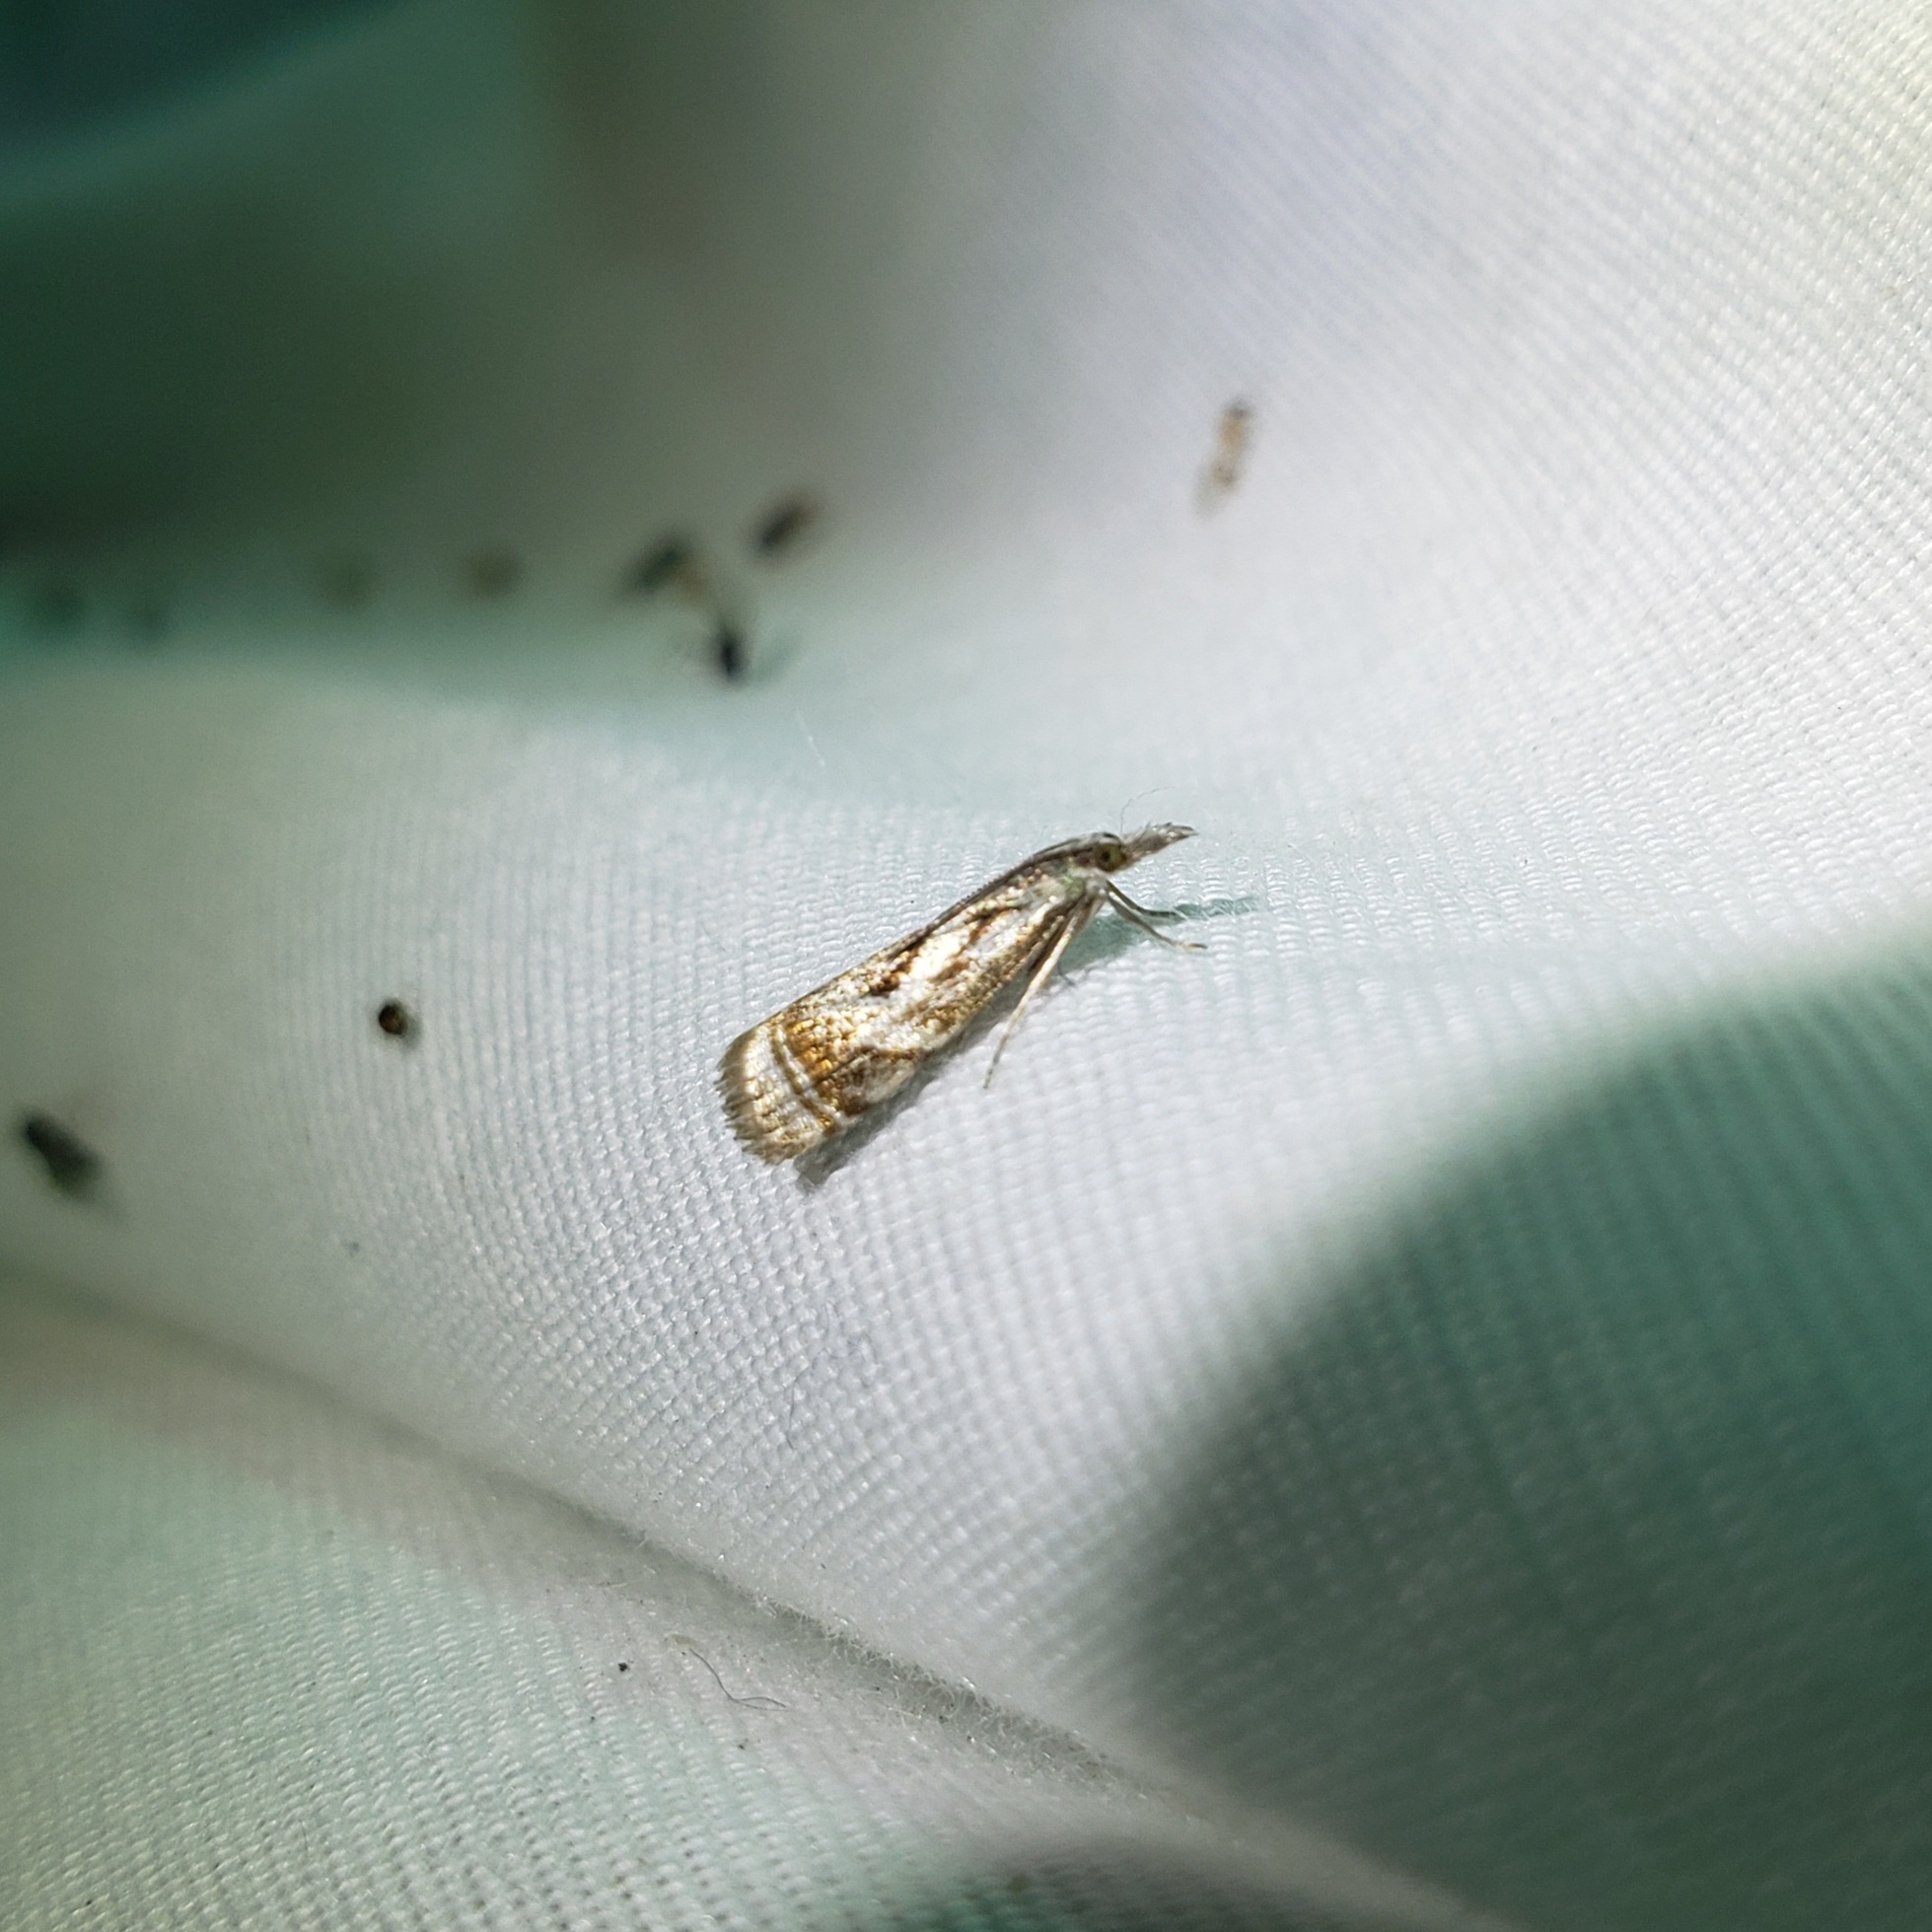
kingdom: Animalia
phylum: Arthropoda
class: Insecta
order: Lepidoptera
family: Crambidae
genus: Microcrambus
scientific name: Microcrambus elegans
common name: Elegant grass-veneer
